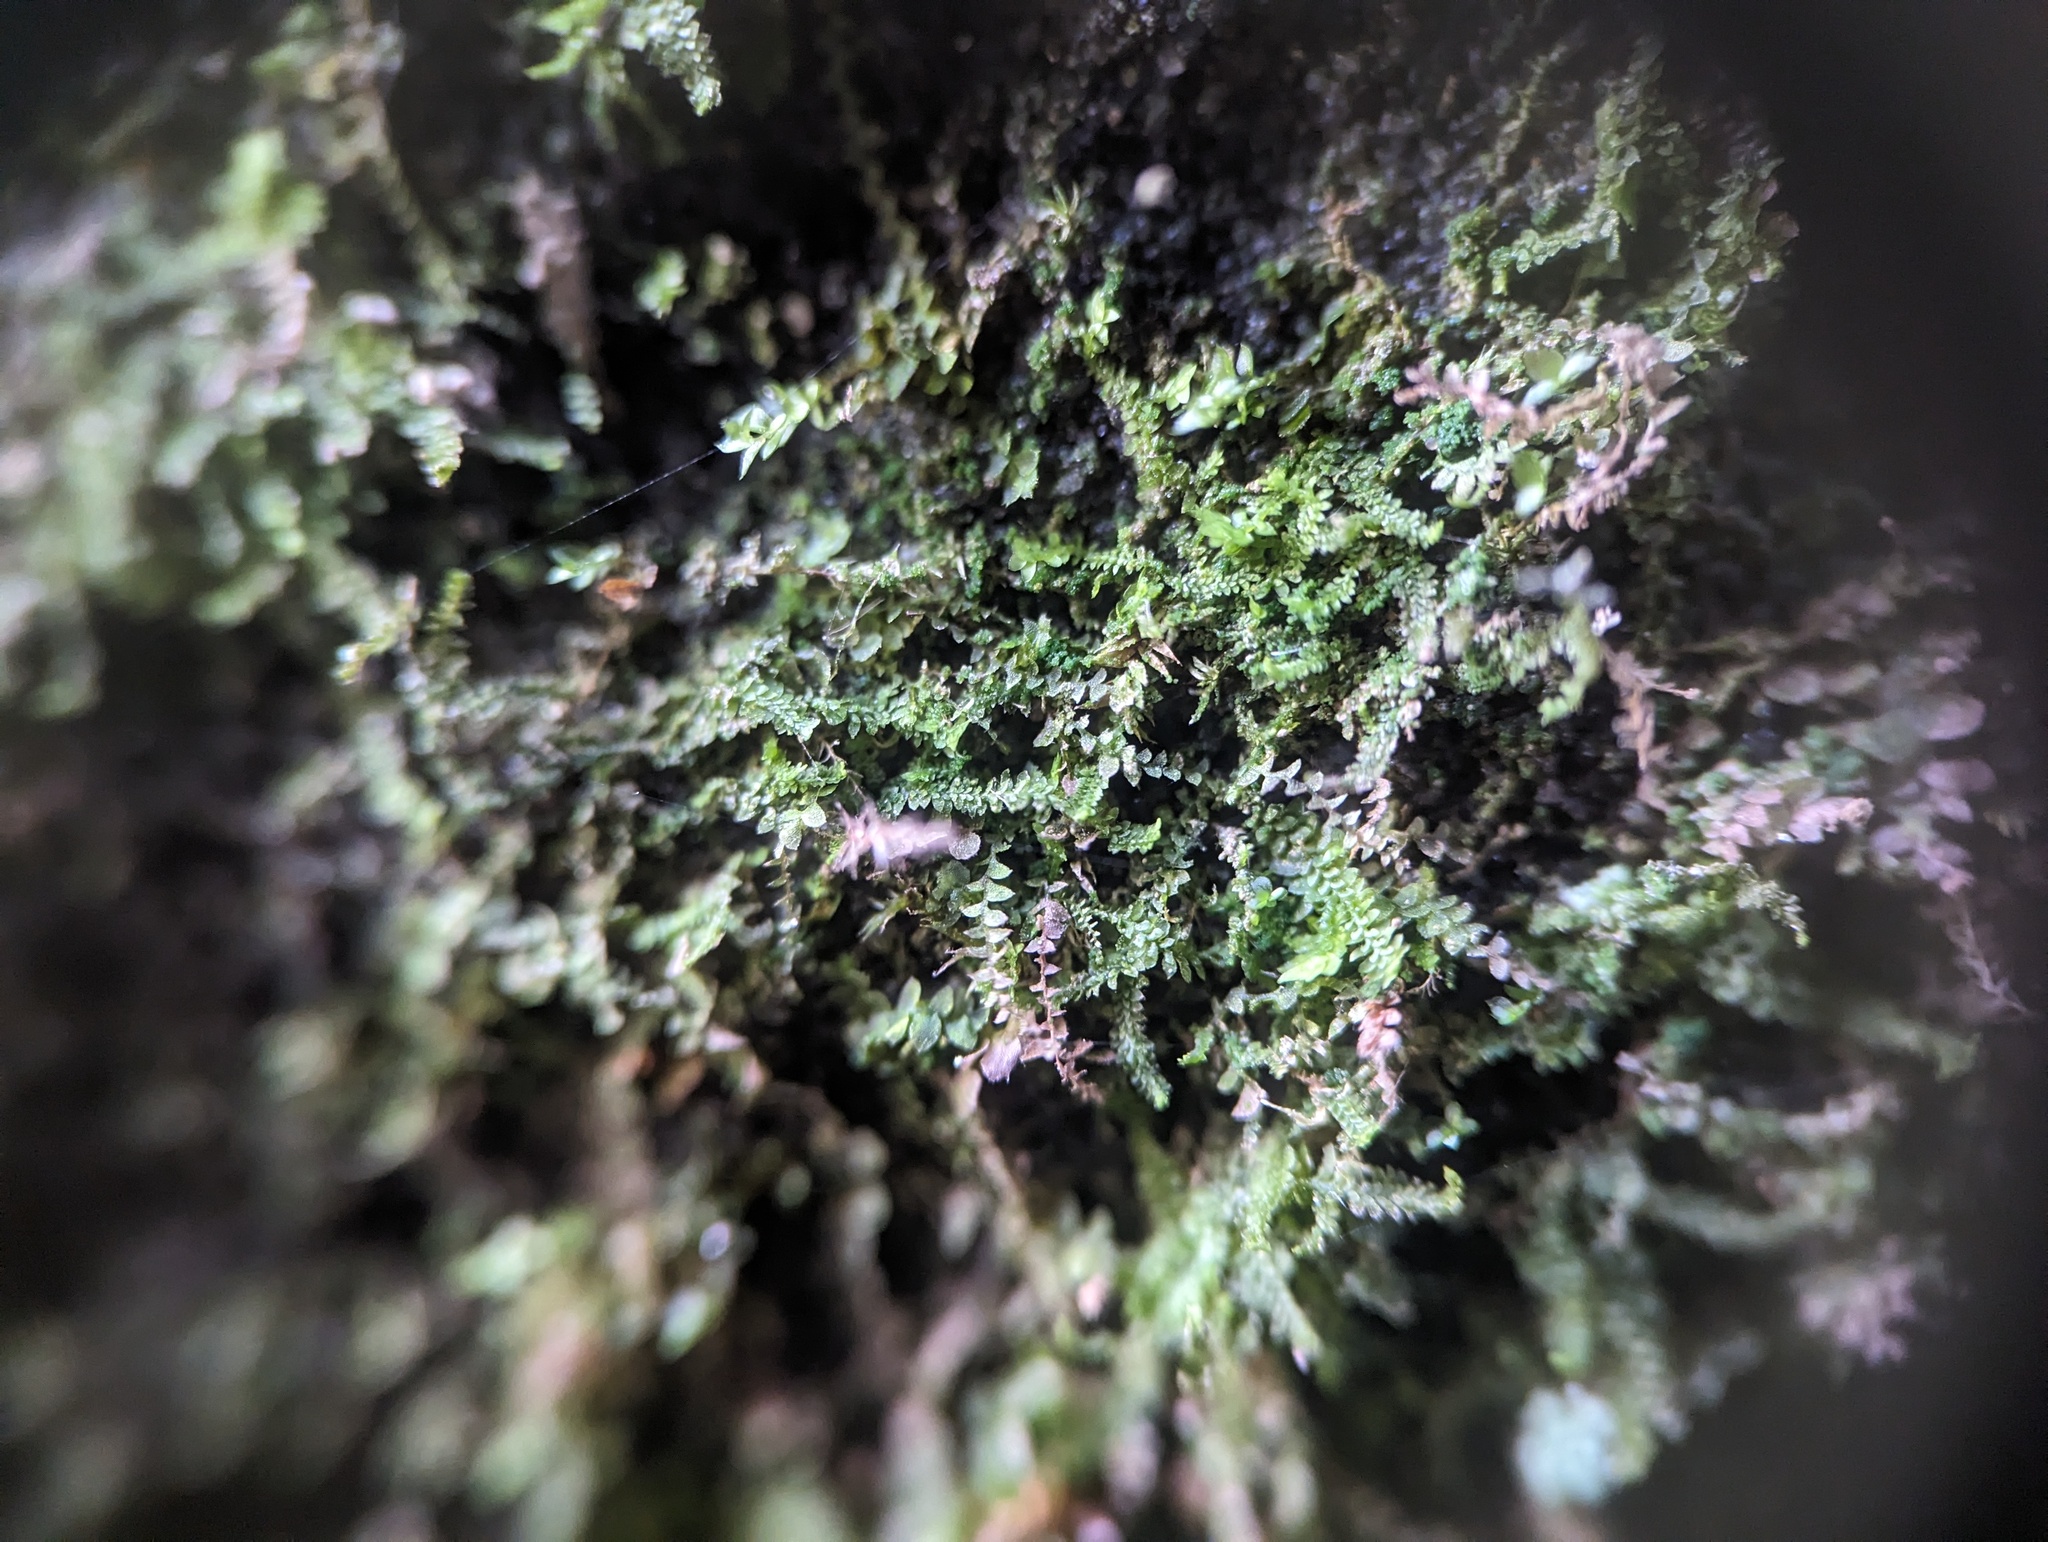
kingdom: Plantae
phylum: Marchantiophyta
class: Jungermanniopsida
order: Jungermanniales
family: Scapaniaceae
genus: Diplophyllum
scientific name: Diplophyllum apiculatum
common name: Sharp-pointed earwort
